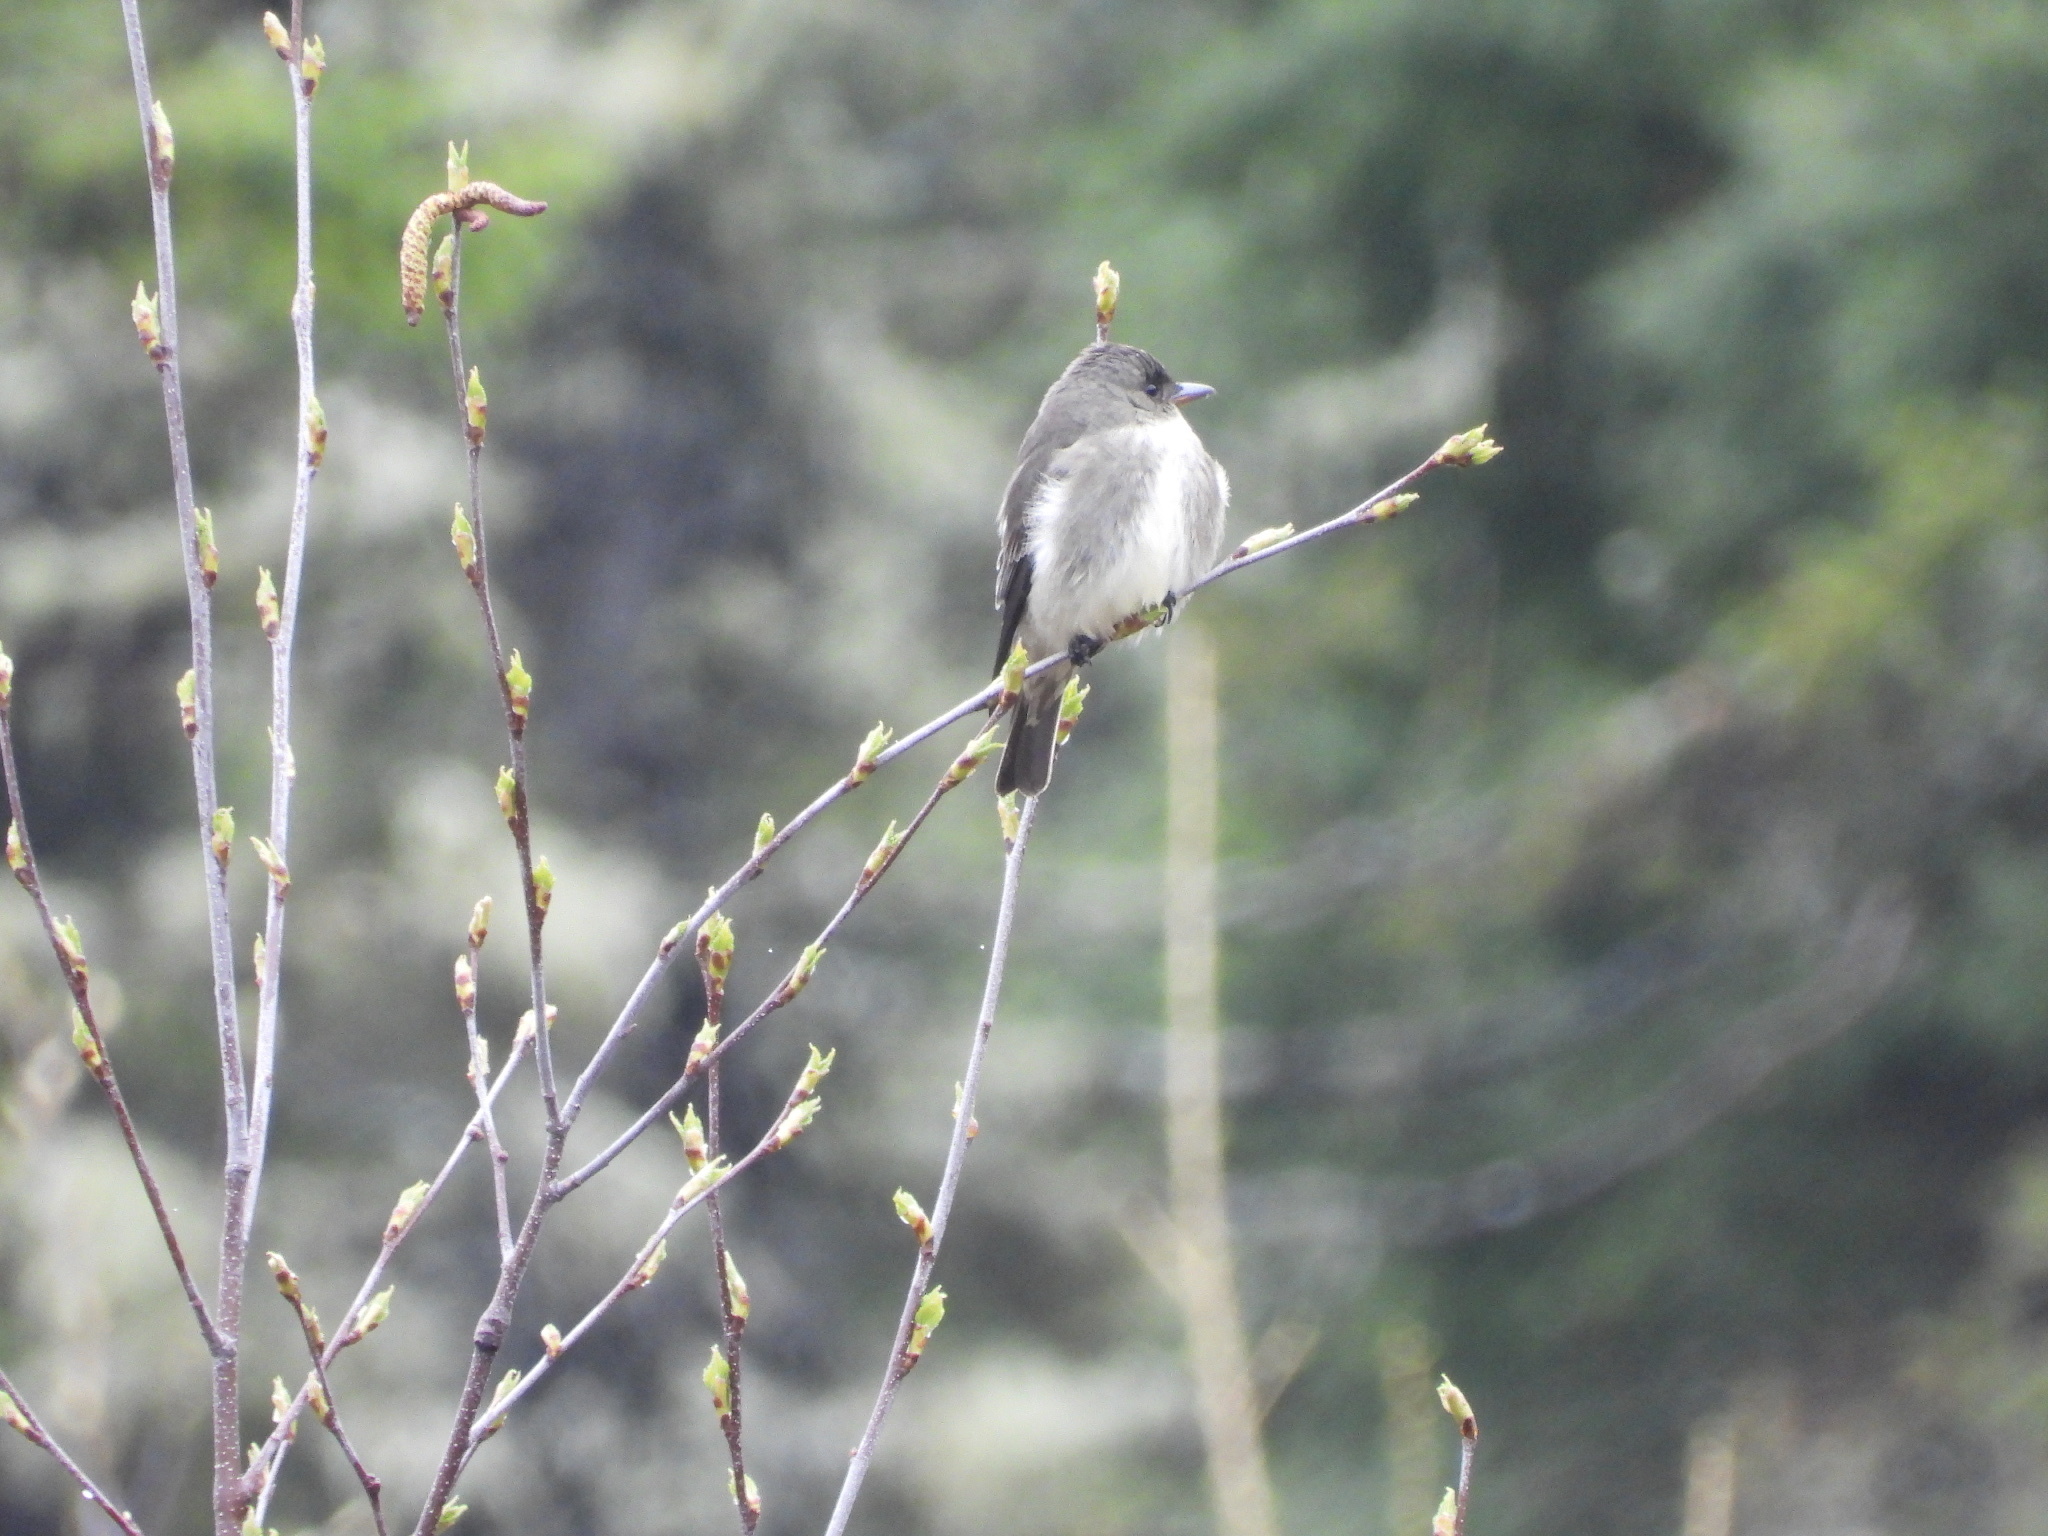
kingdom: Animalia
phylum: Chordata
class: Aves
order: Passeriformes
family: Tyrannidae
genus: Contopus
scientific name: Contopus cooperi
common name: Olive-sided flycatcher
